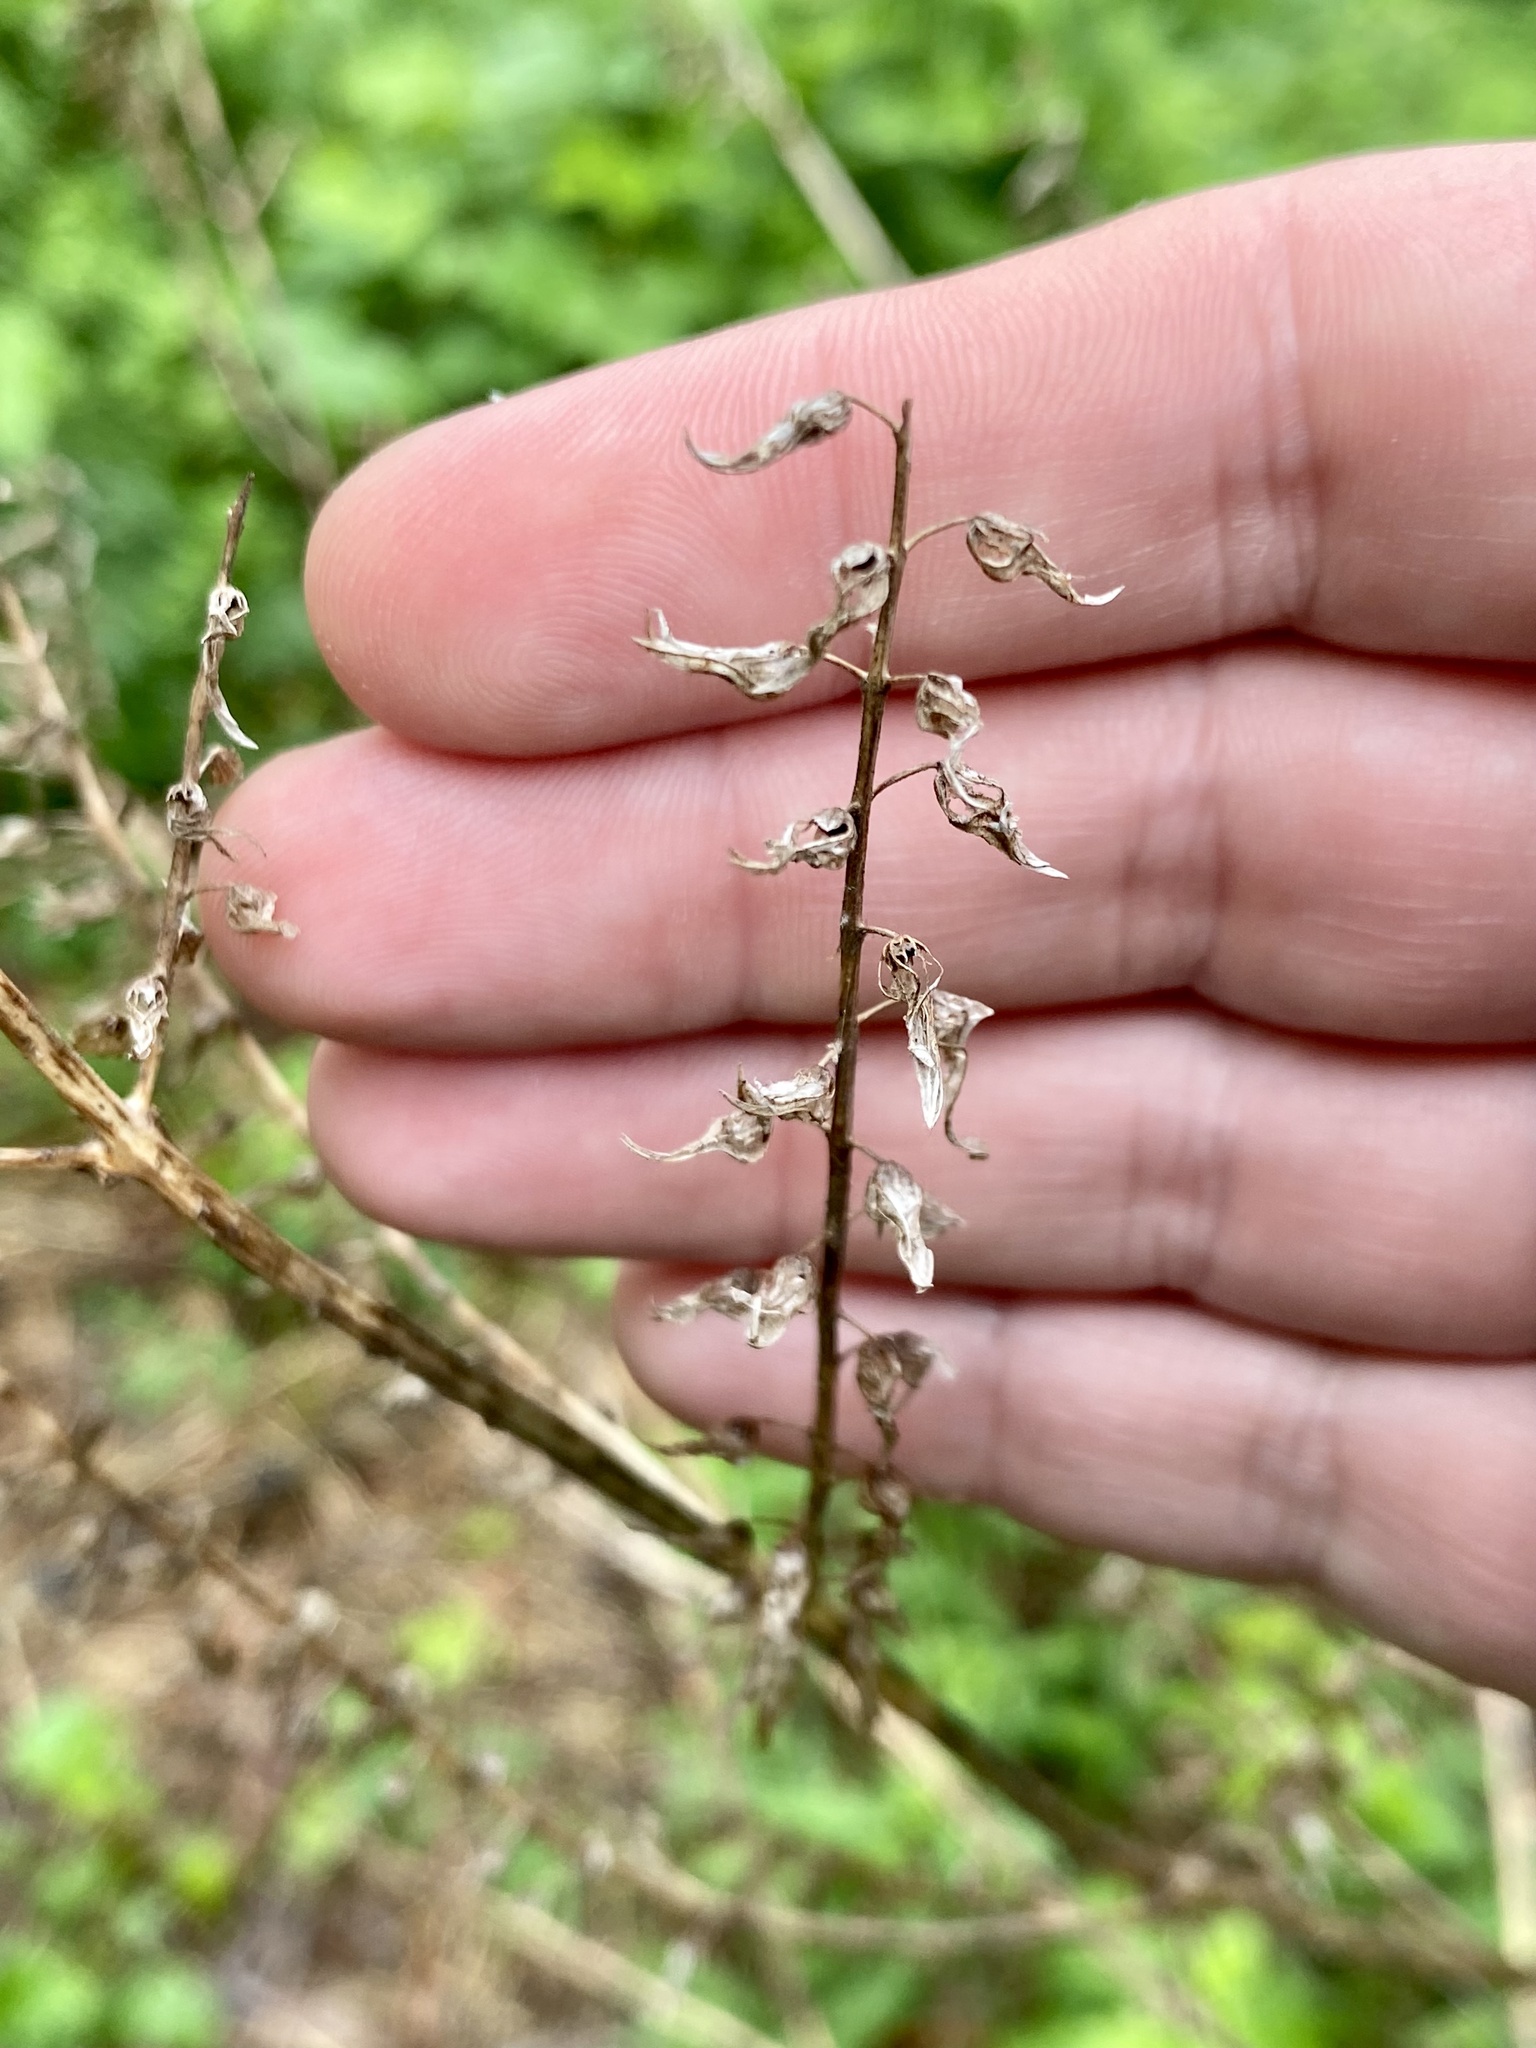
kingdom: Plantae
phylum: Tracheophyta
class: Magnoliopsida
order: Lamiales
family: Lamiaceae
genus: Perilla
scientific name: Perilla frutescens
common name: Perilla
